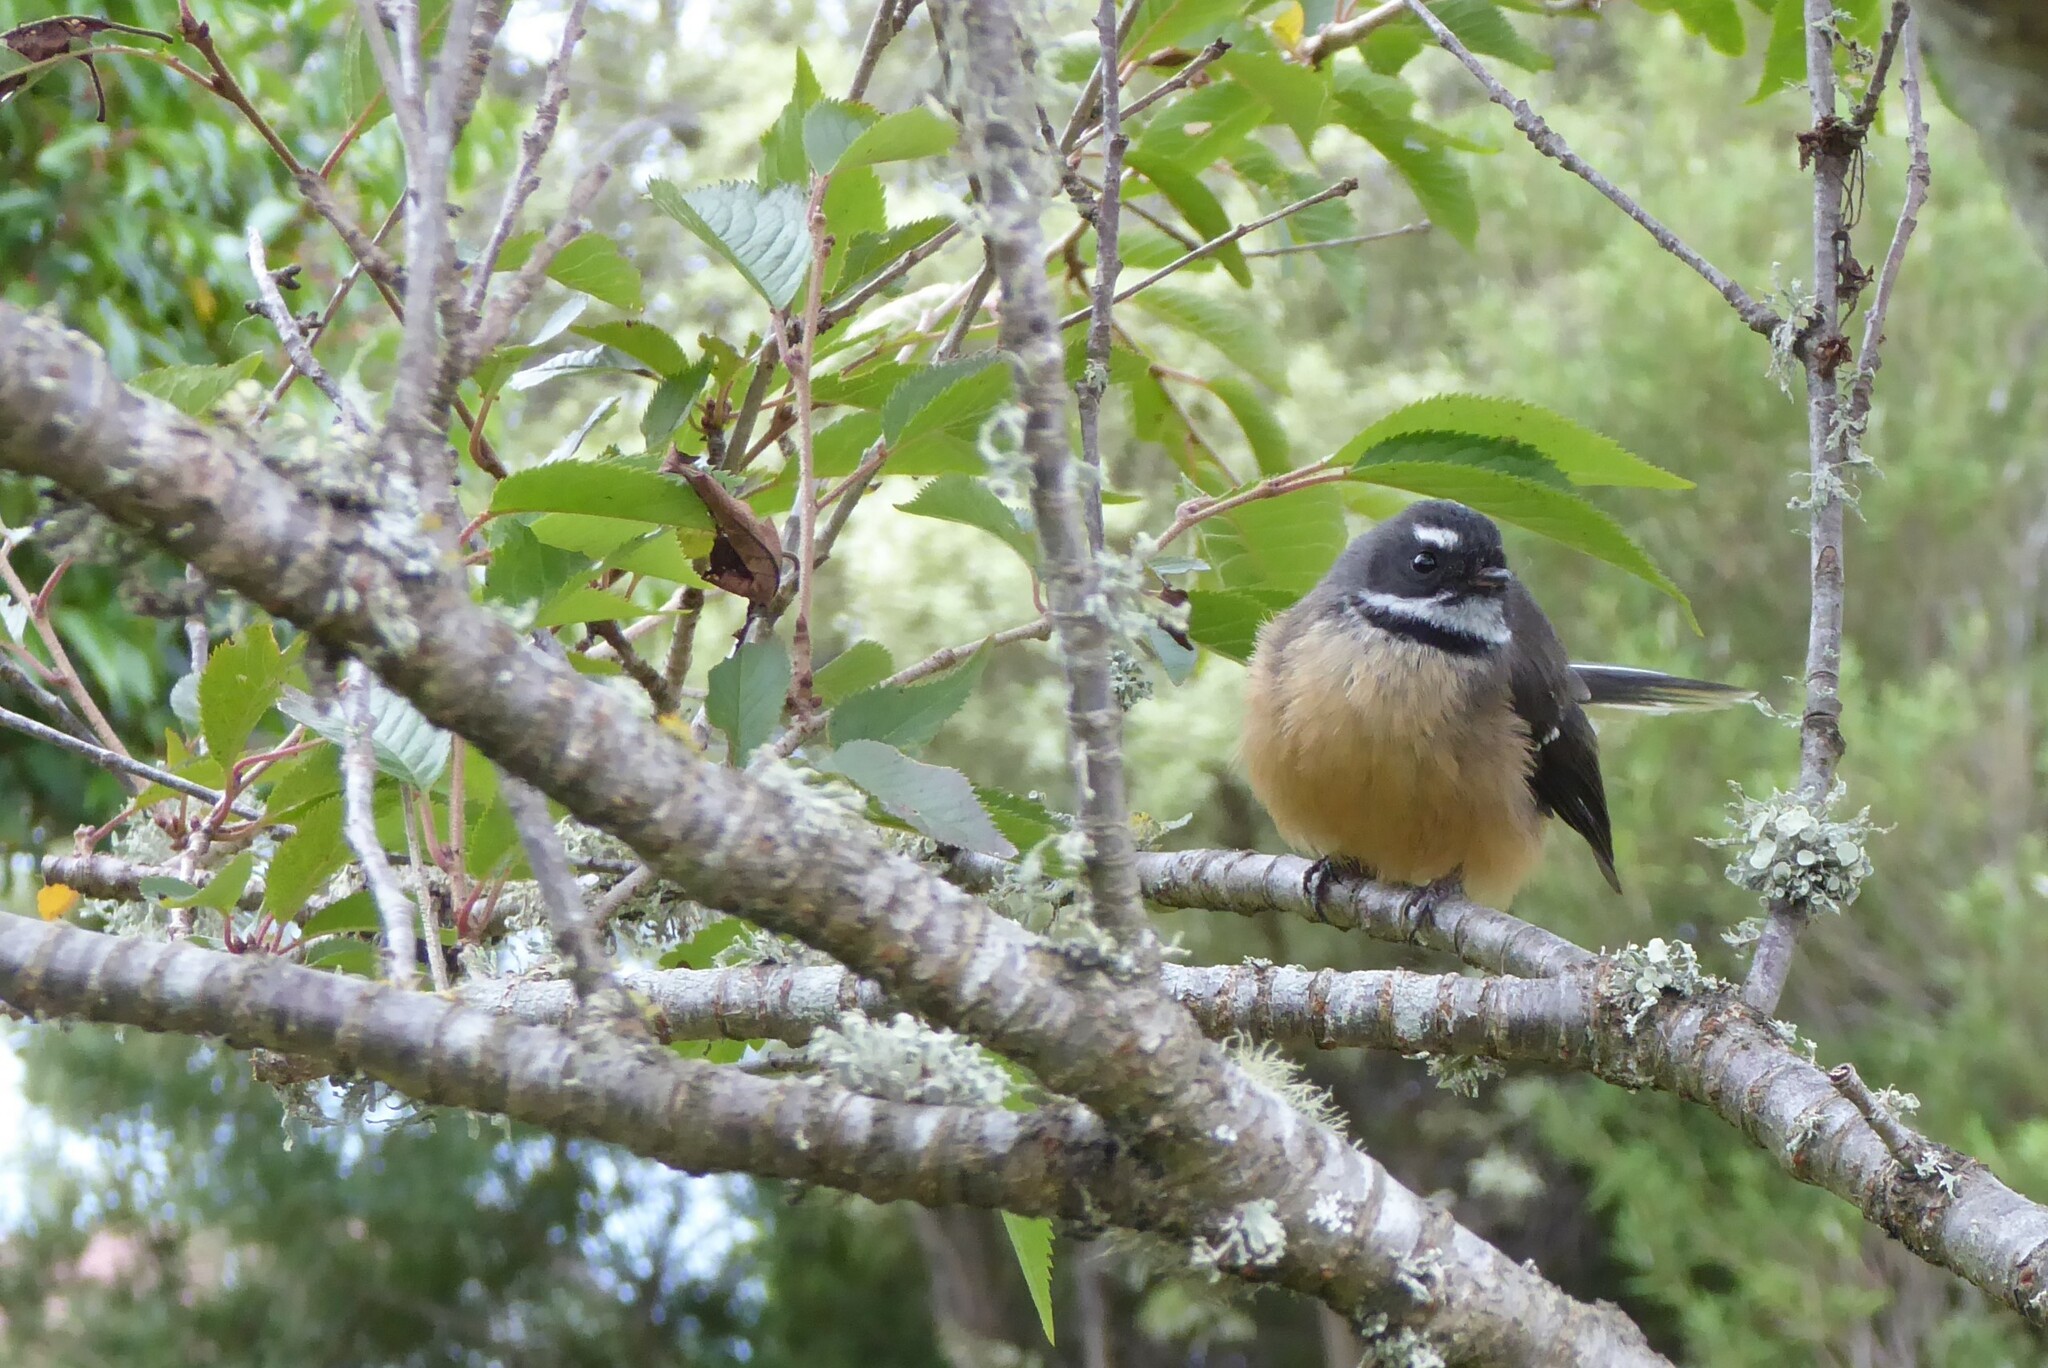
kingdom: Animalia
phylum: Chordata
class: Aves
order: Passeriformes
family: Rhipiduridae
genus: Rhipidura
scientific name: Rhipidura fuliginosa
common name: New zealand fantail
